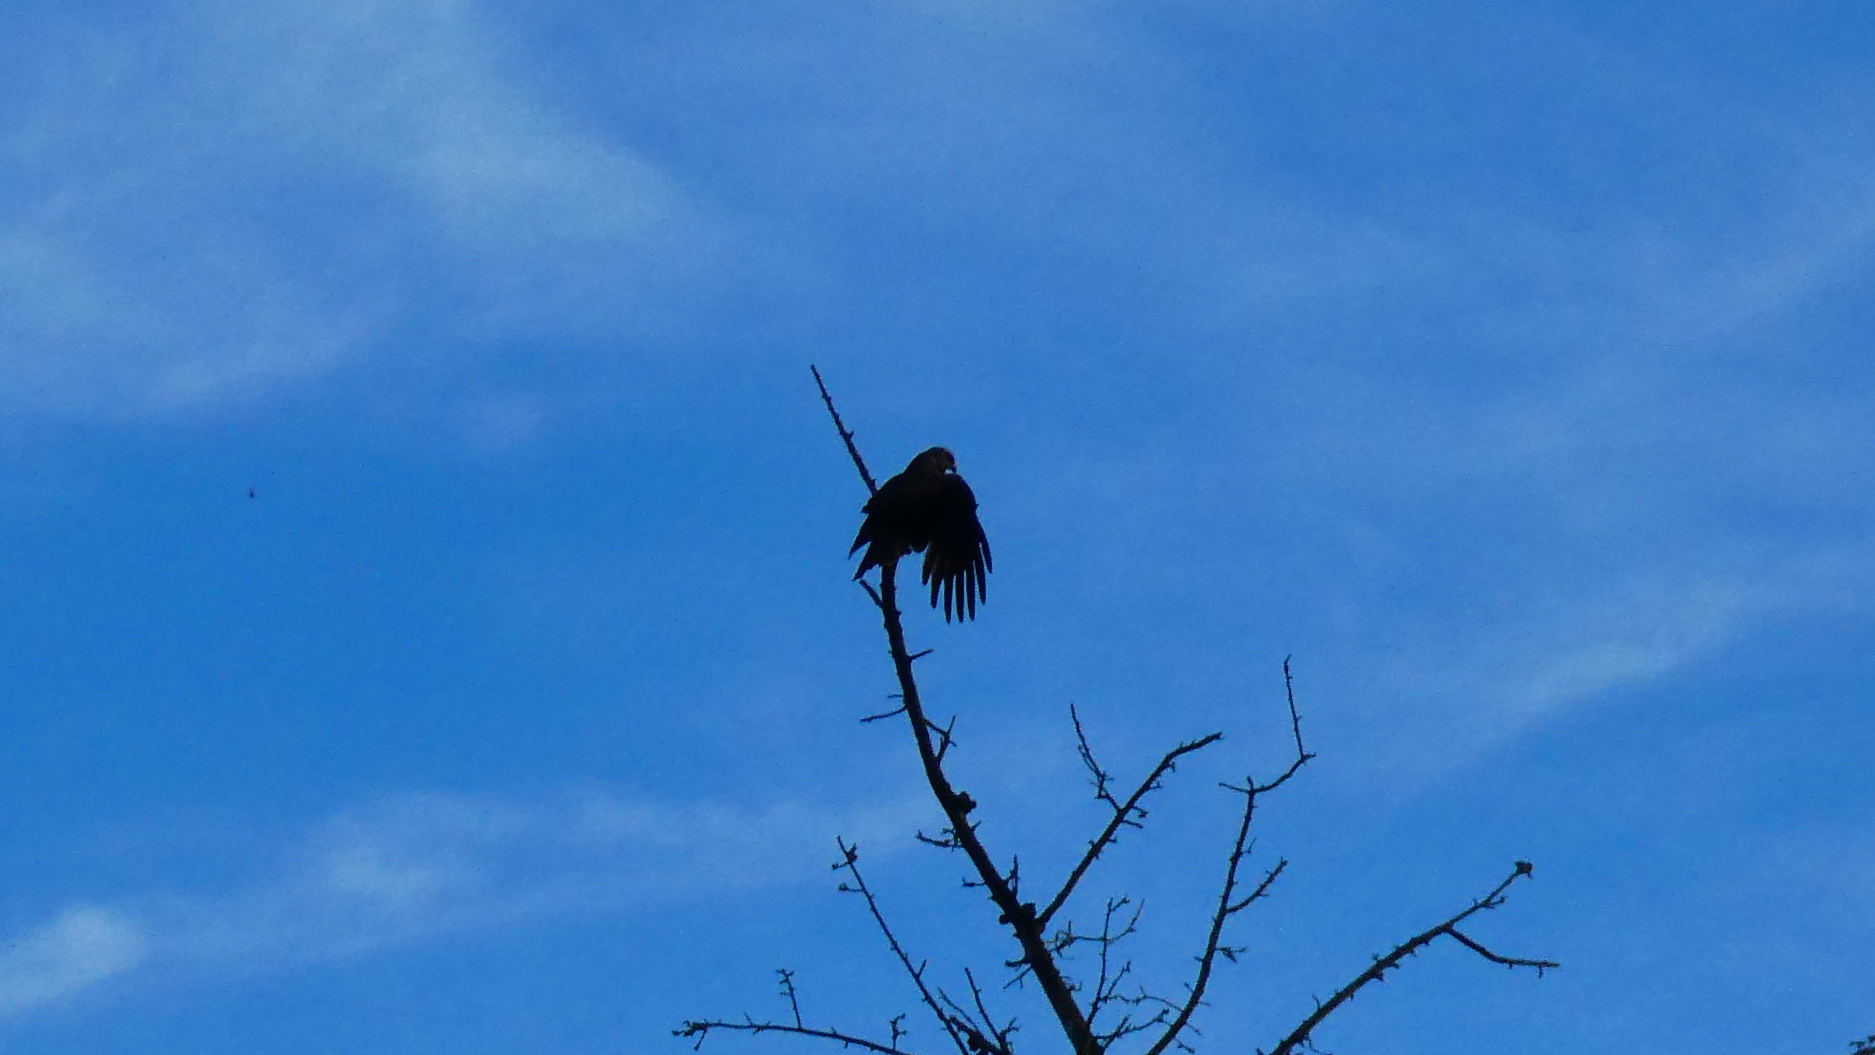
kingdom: Animalia
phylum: Chordata
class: Aves
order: Accipitriformes
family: Accipitridae
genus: Milvus
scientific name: Milvus migrans
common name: Black kite
